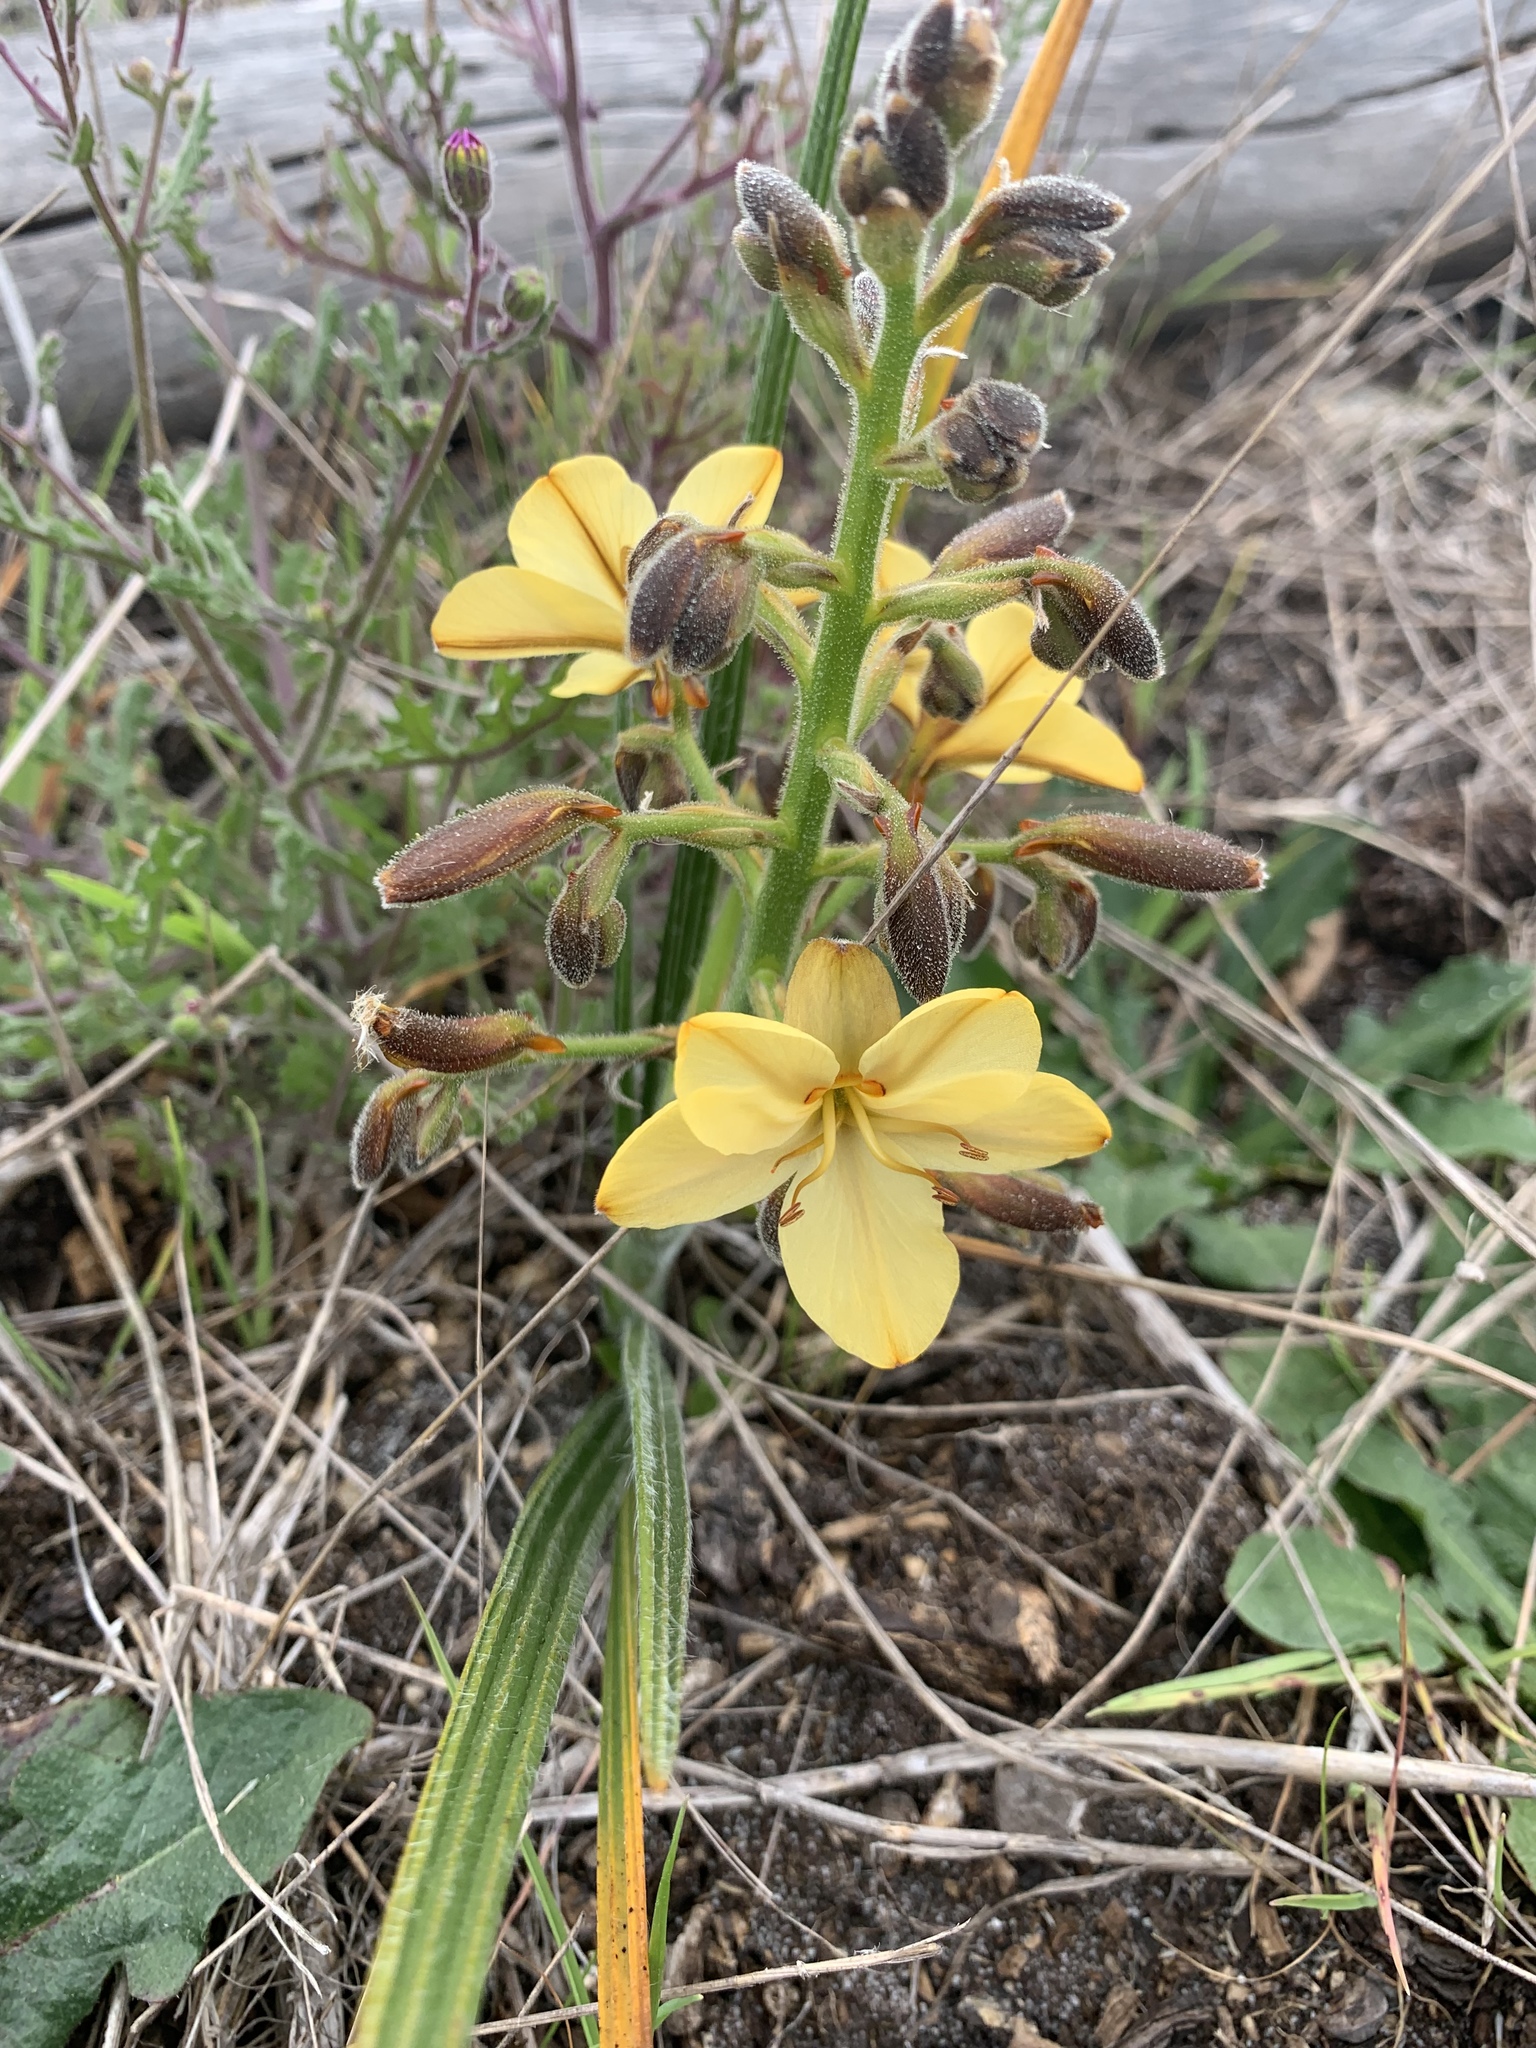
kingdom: Plantae
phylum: Tracheophyta
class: Liliopsida
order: Commelinales
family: Haemodoraceae
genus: Wachendorfia
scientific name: Wachendorfia paniculata
